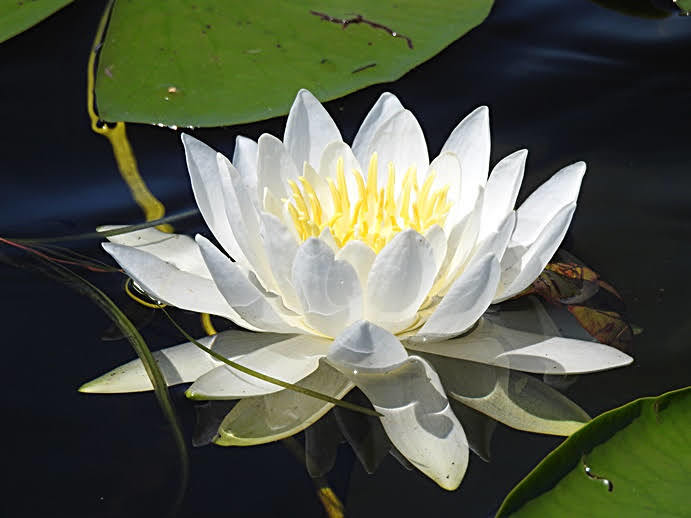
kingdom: Plantae
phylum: Tracheophyta
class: Magnoliopsida
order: Nymphaeales
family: Nymphaeaceae
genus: Nymphaea
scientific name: Nymphaea odorata
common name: Fragrant water-lily
